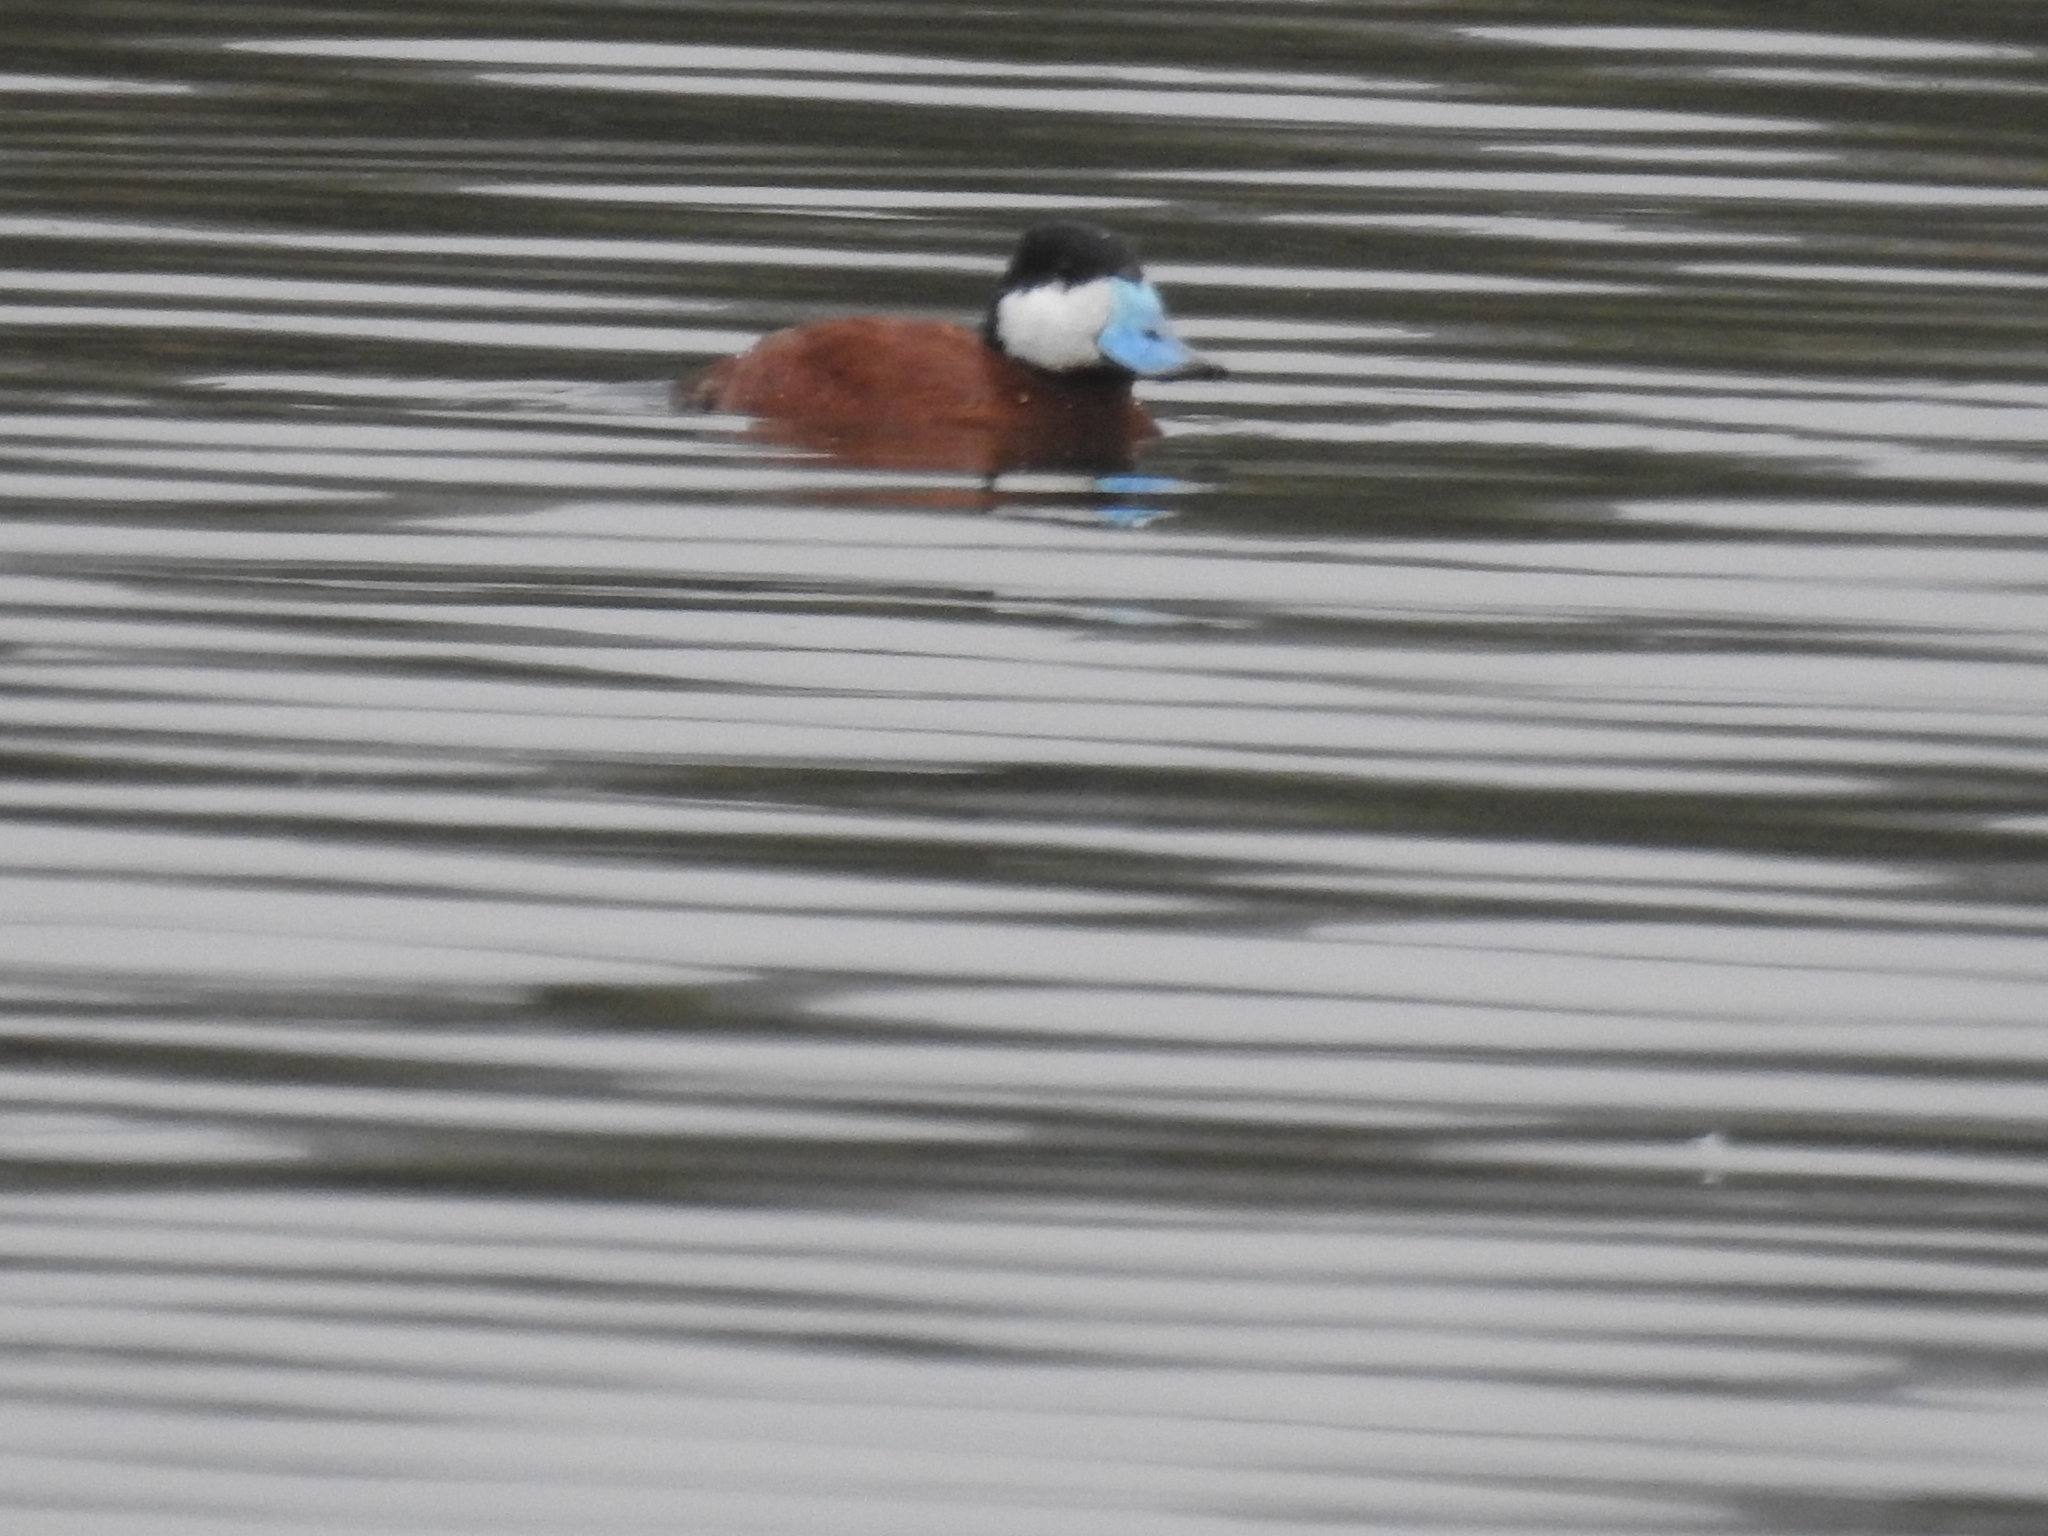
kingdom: Animalia
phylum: Chordata
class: Aves
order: Anseriformes
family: Anatidae
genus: Oxyura
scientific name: Oxyura jamaicensis
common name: Ruddy duck
